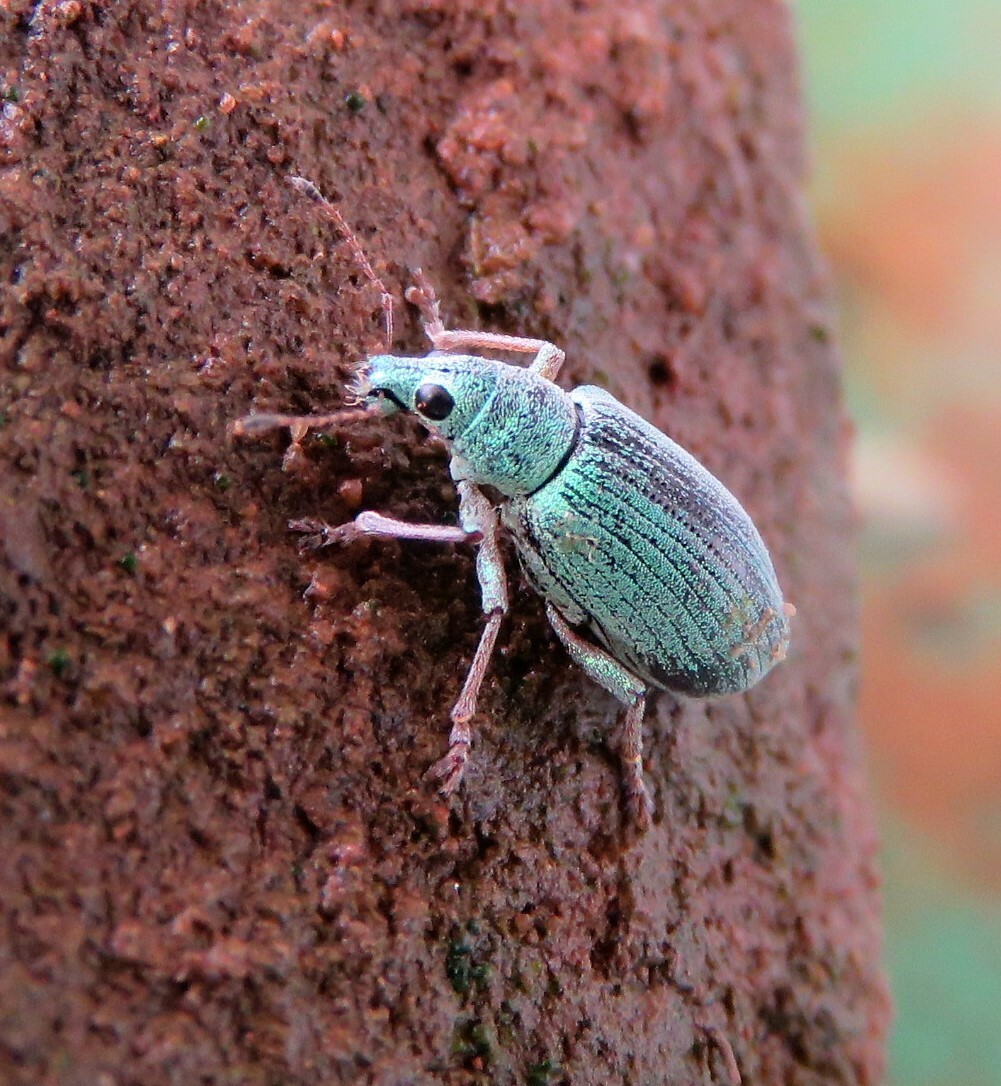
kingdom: Animalia
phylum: Arthropoda
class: Insecta
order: Coleoptera
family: Curculionidae
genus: Polydrusus
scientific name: Polydrusus formosus
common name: Weevil
